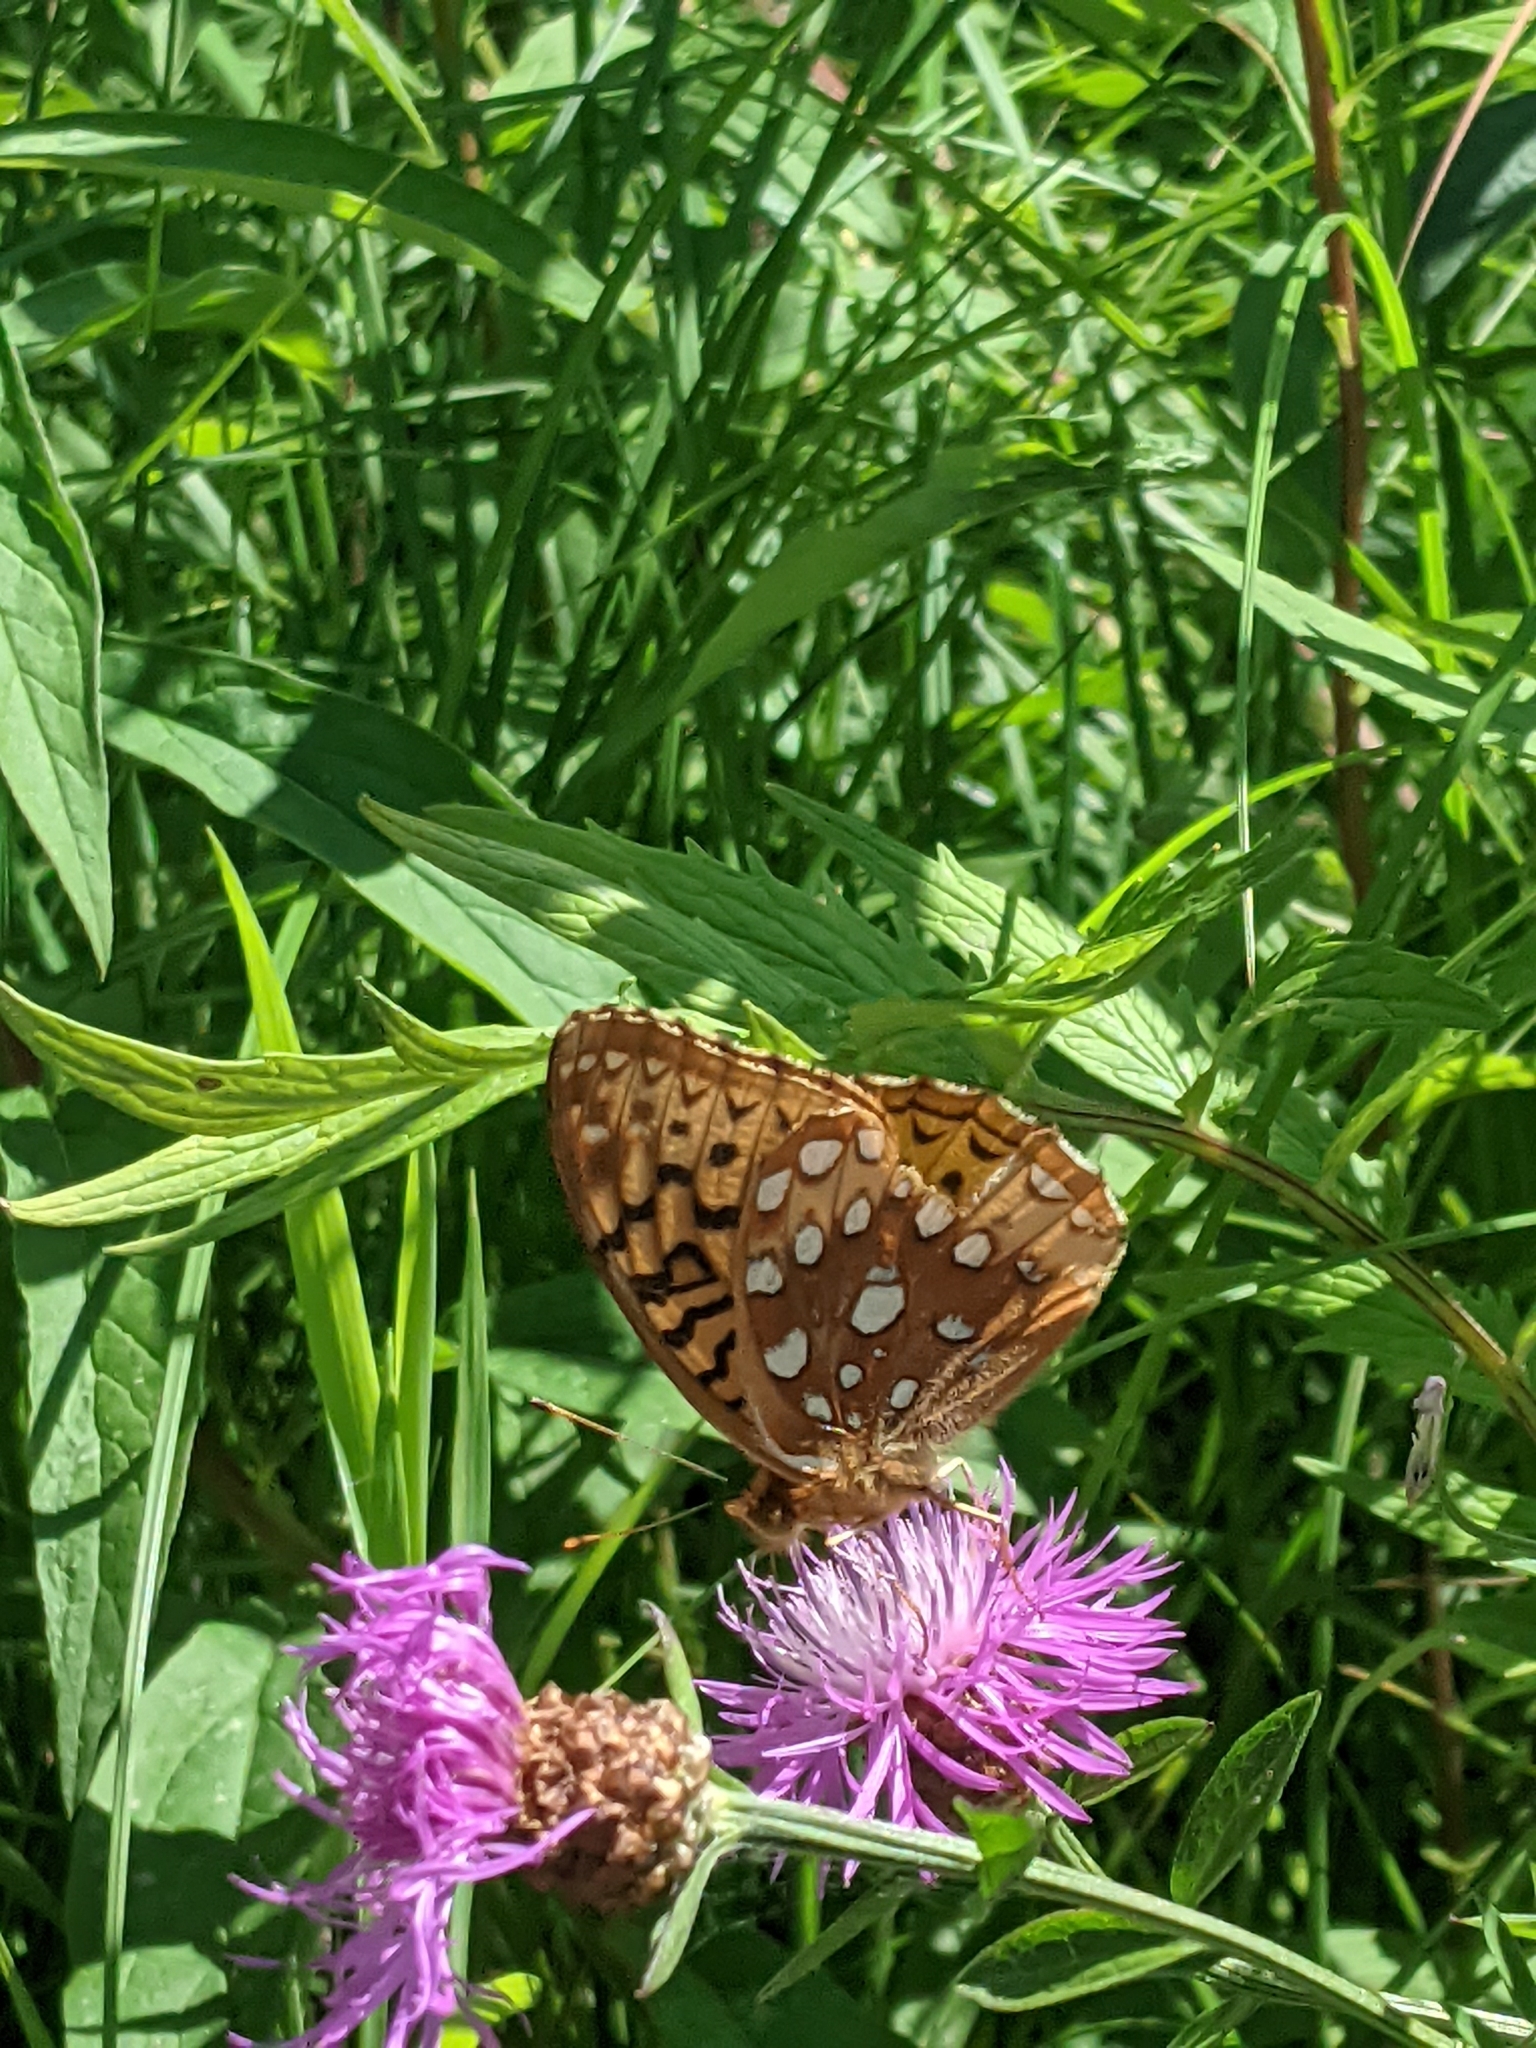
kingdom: Animalia
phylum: Arthropoda
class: Insecta
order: Lepidoptera
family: Nymphalidae
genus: Speyeria
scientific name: Speyeria cybele
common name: Great spangled fritillary
